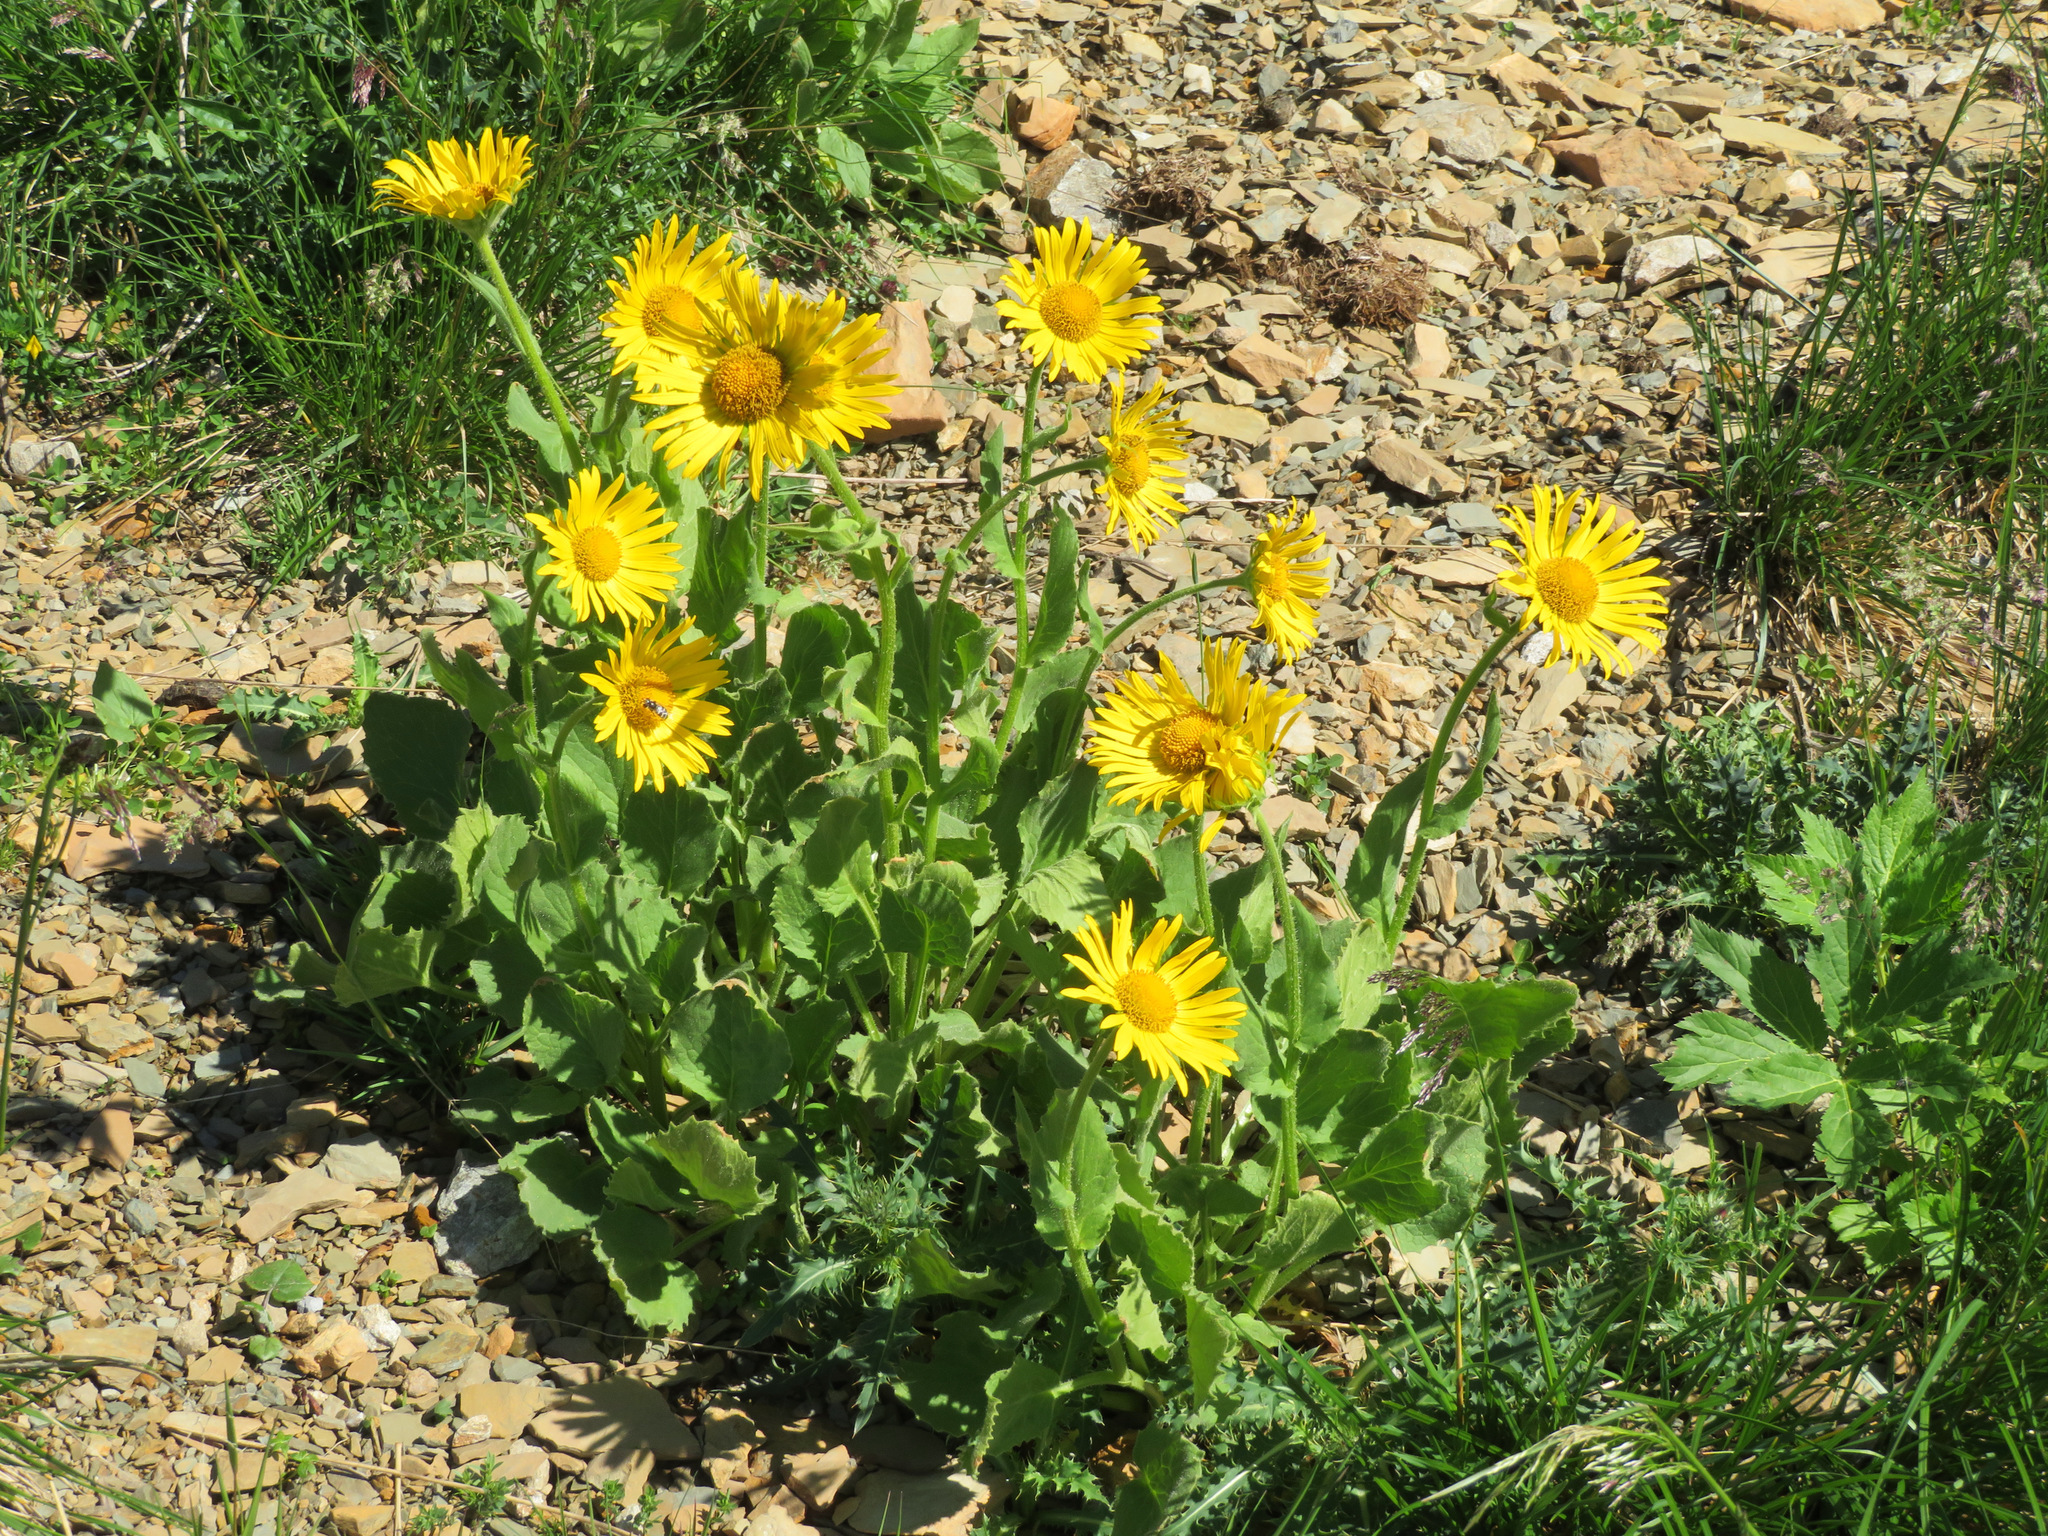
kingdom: Plantae
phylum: Tracheophyta
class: Magnoliopsida
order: Asterales
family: Asteraceae
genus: Doronicum
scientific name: Doronicum grandiflorum
